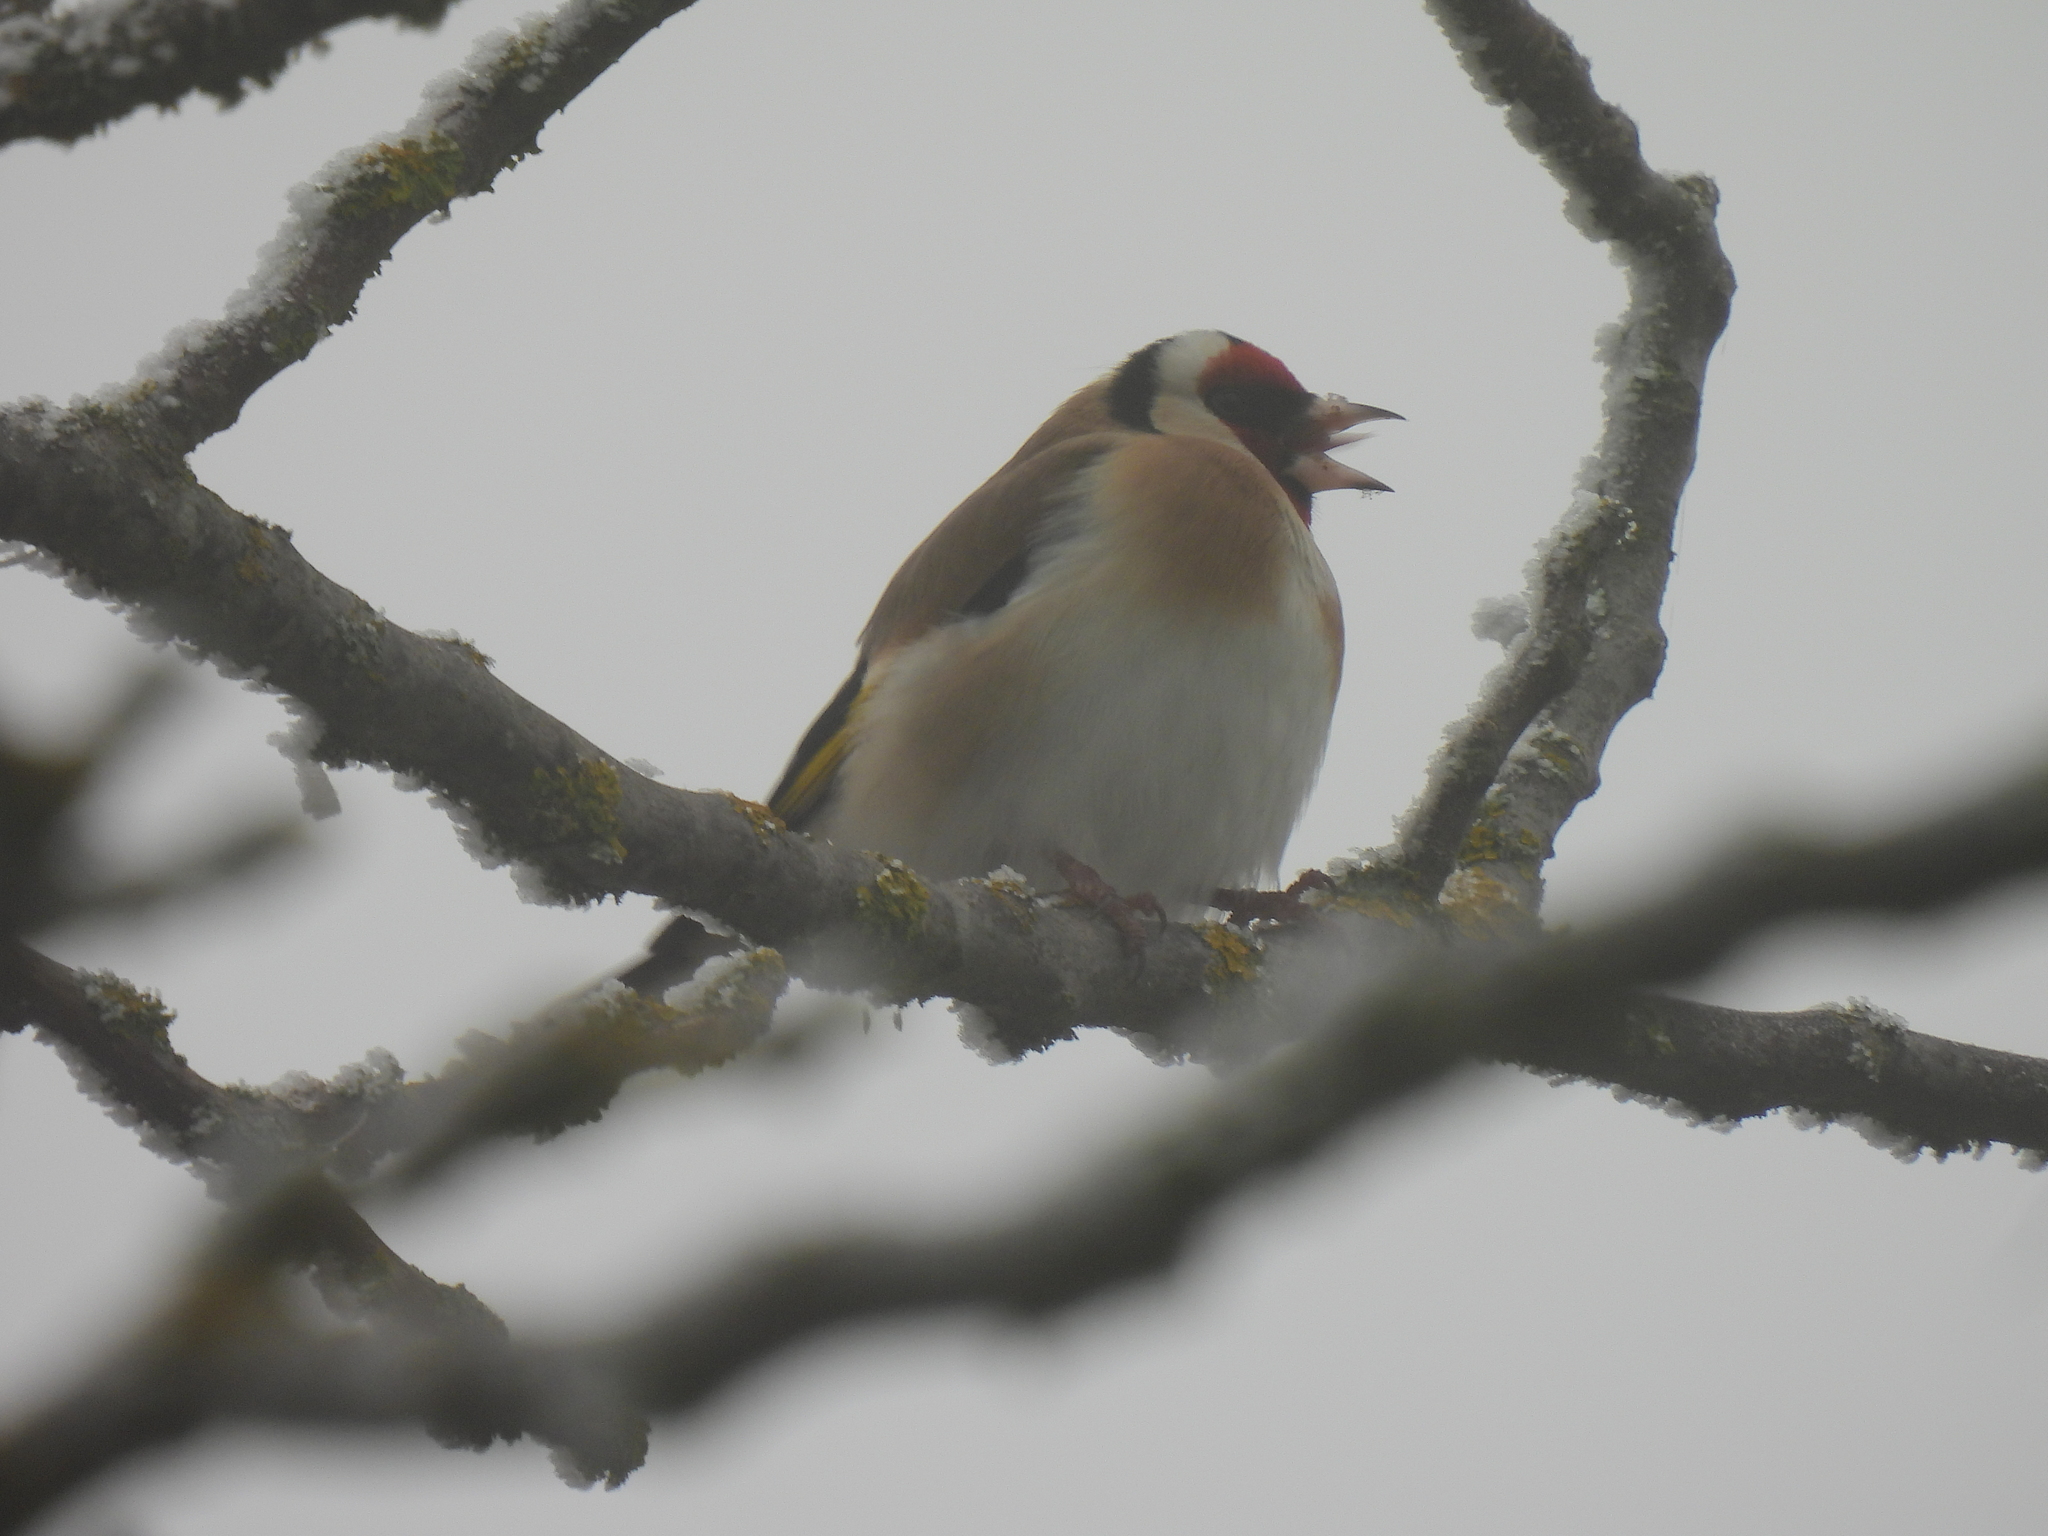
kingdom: Animalia
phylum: Chordata
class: Aves
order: Passeriformes
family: Fringillidae
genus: Carduelis
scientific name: Carduelis carduelis
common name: European goldfinch
